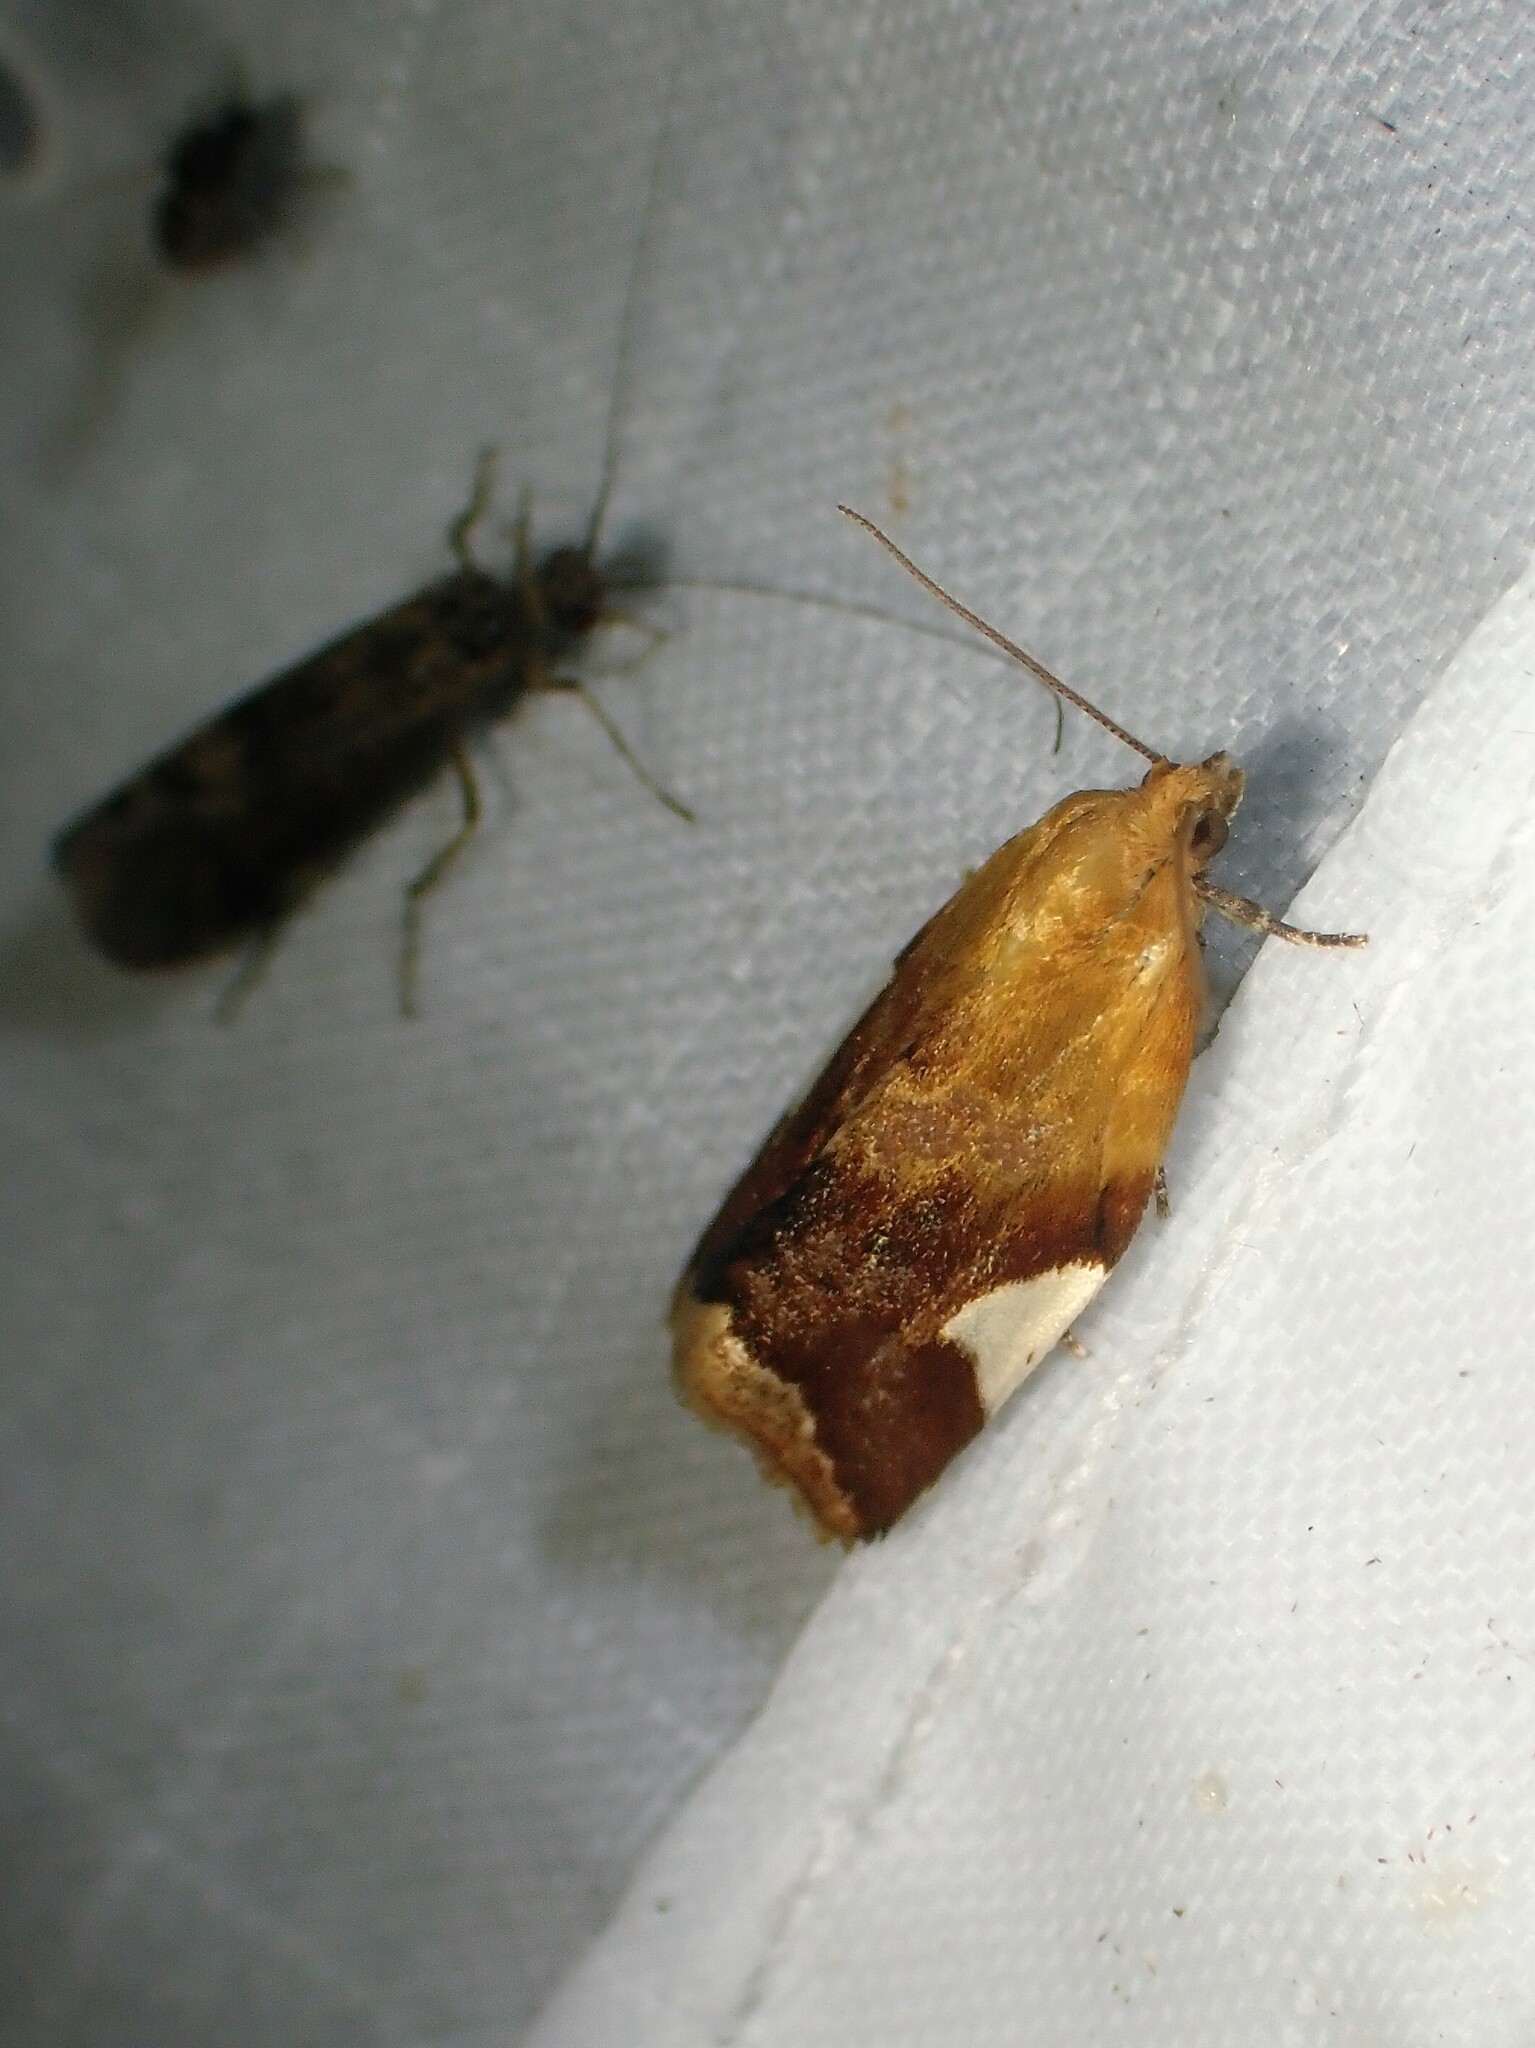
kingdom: Animalia
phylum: Arthropoda
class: Insecta
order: Lepidoptera
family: Tortricidae
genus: Clepsis
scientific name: Clepsis persicana
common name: White triangle tortrix
